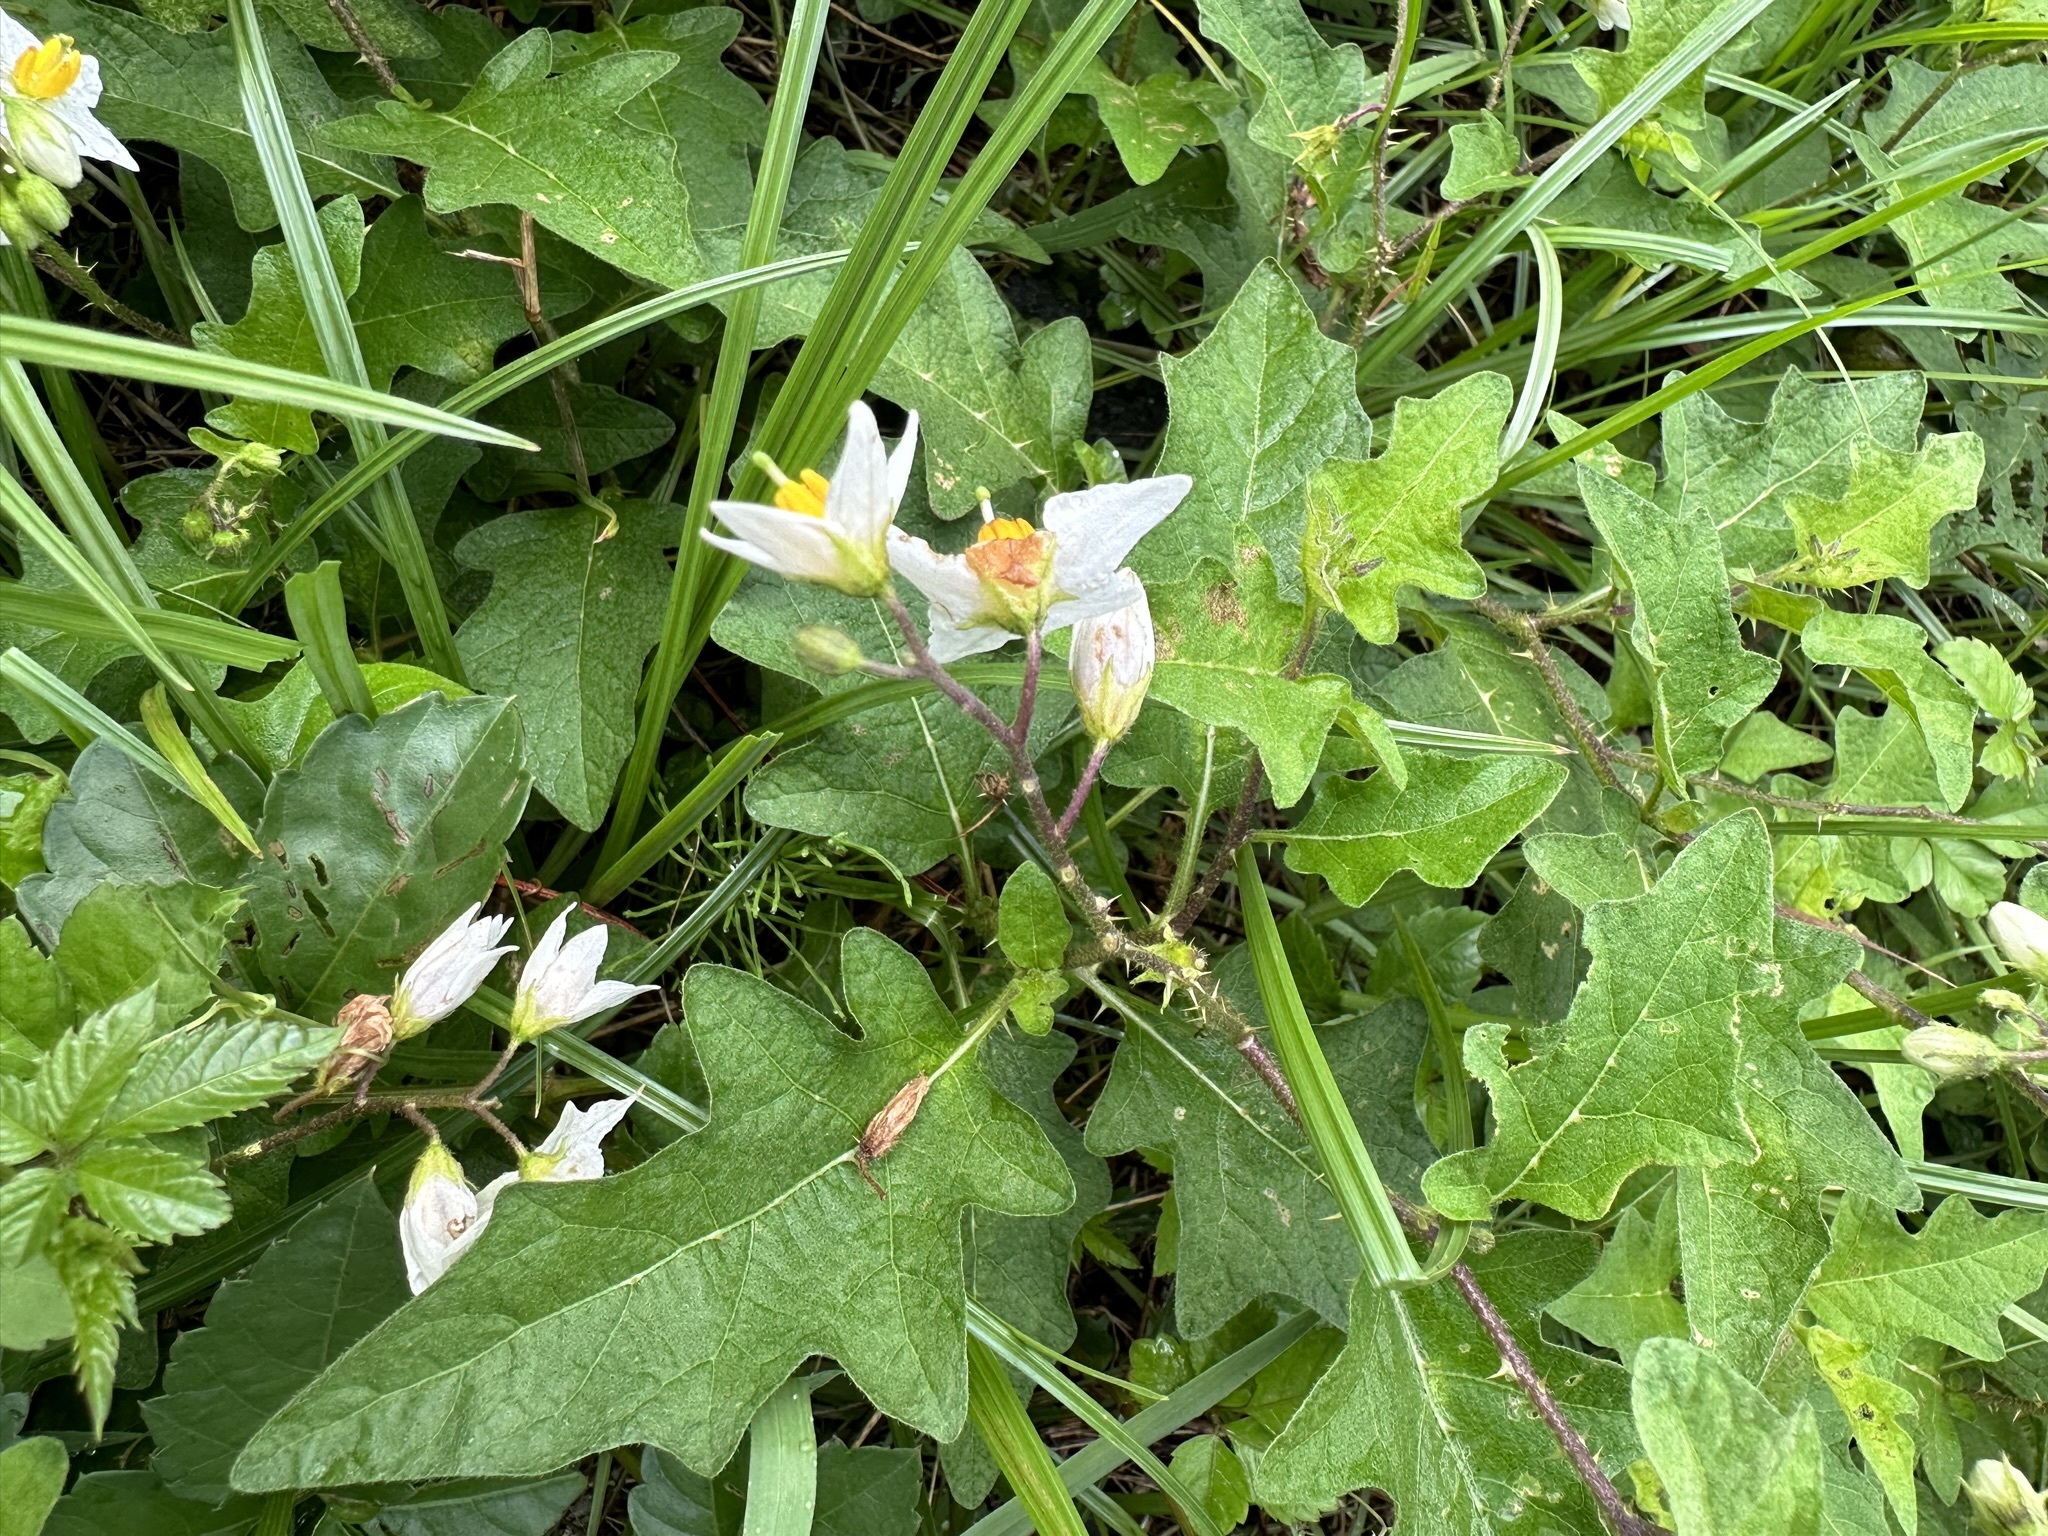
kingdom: Plantae
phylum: Tracheophyta
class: Magnoliopsida
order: Solanales
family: Solanaceae
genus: Solanum
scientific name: Solanum carolinense
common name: Horse-nettle
